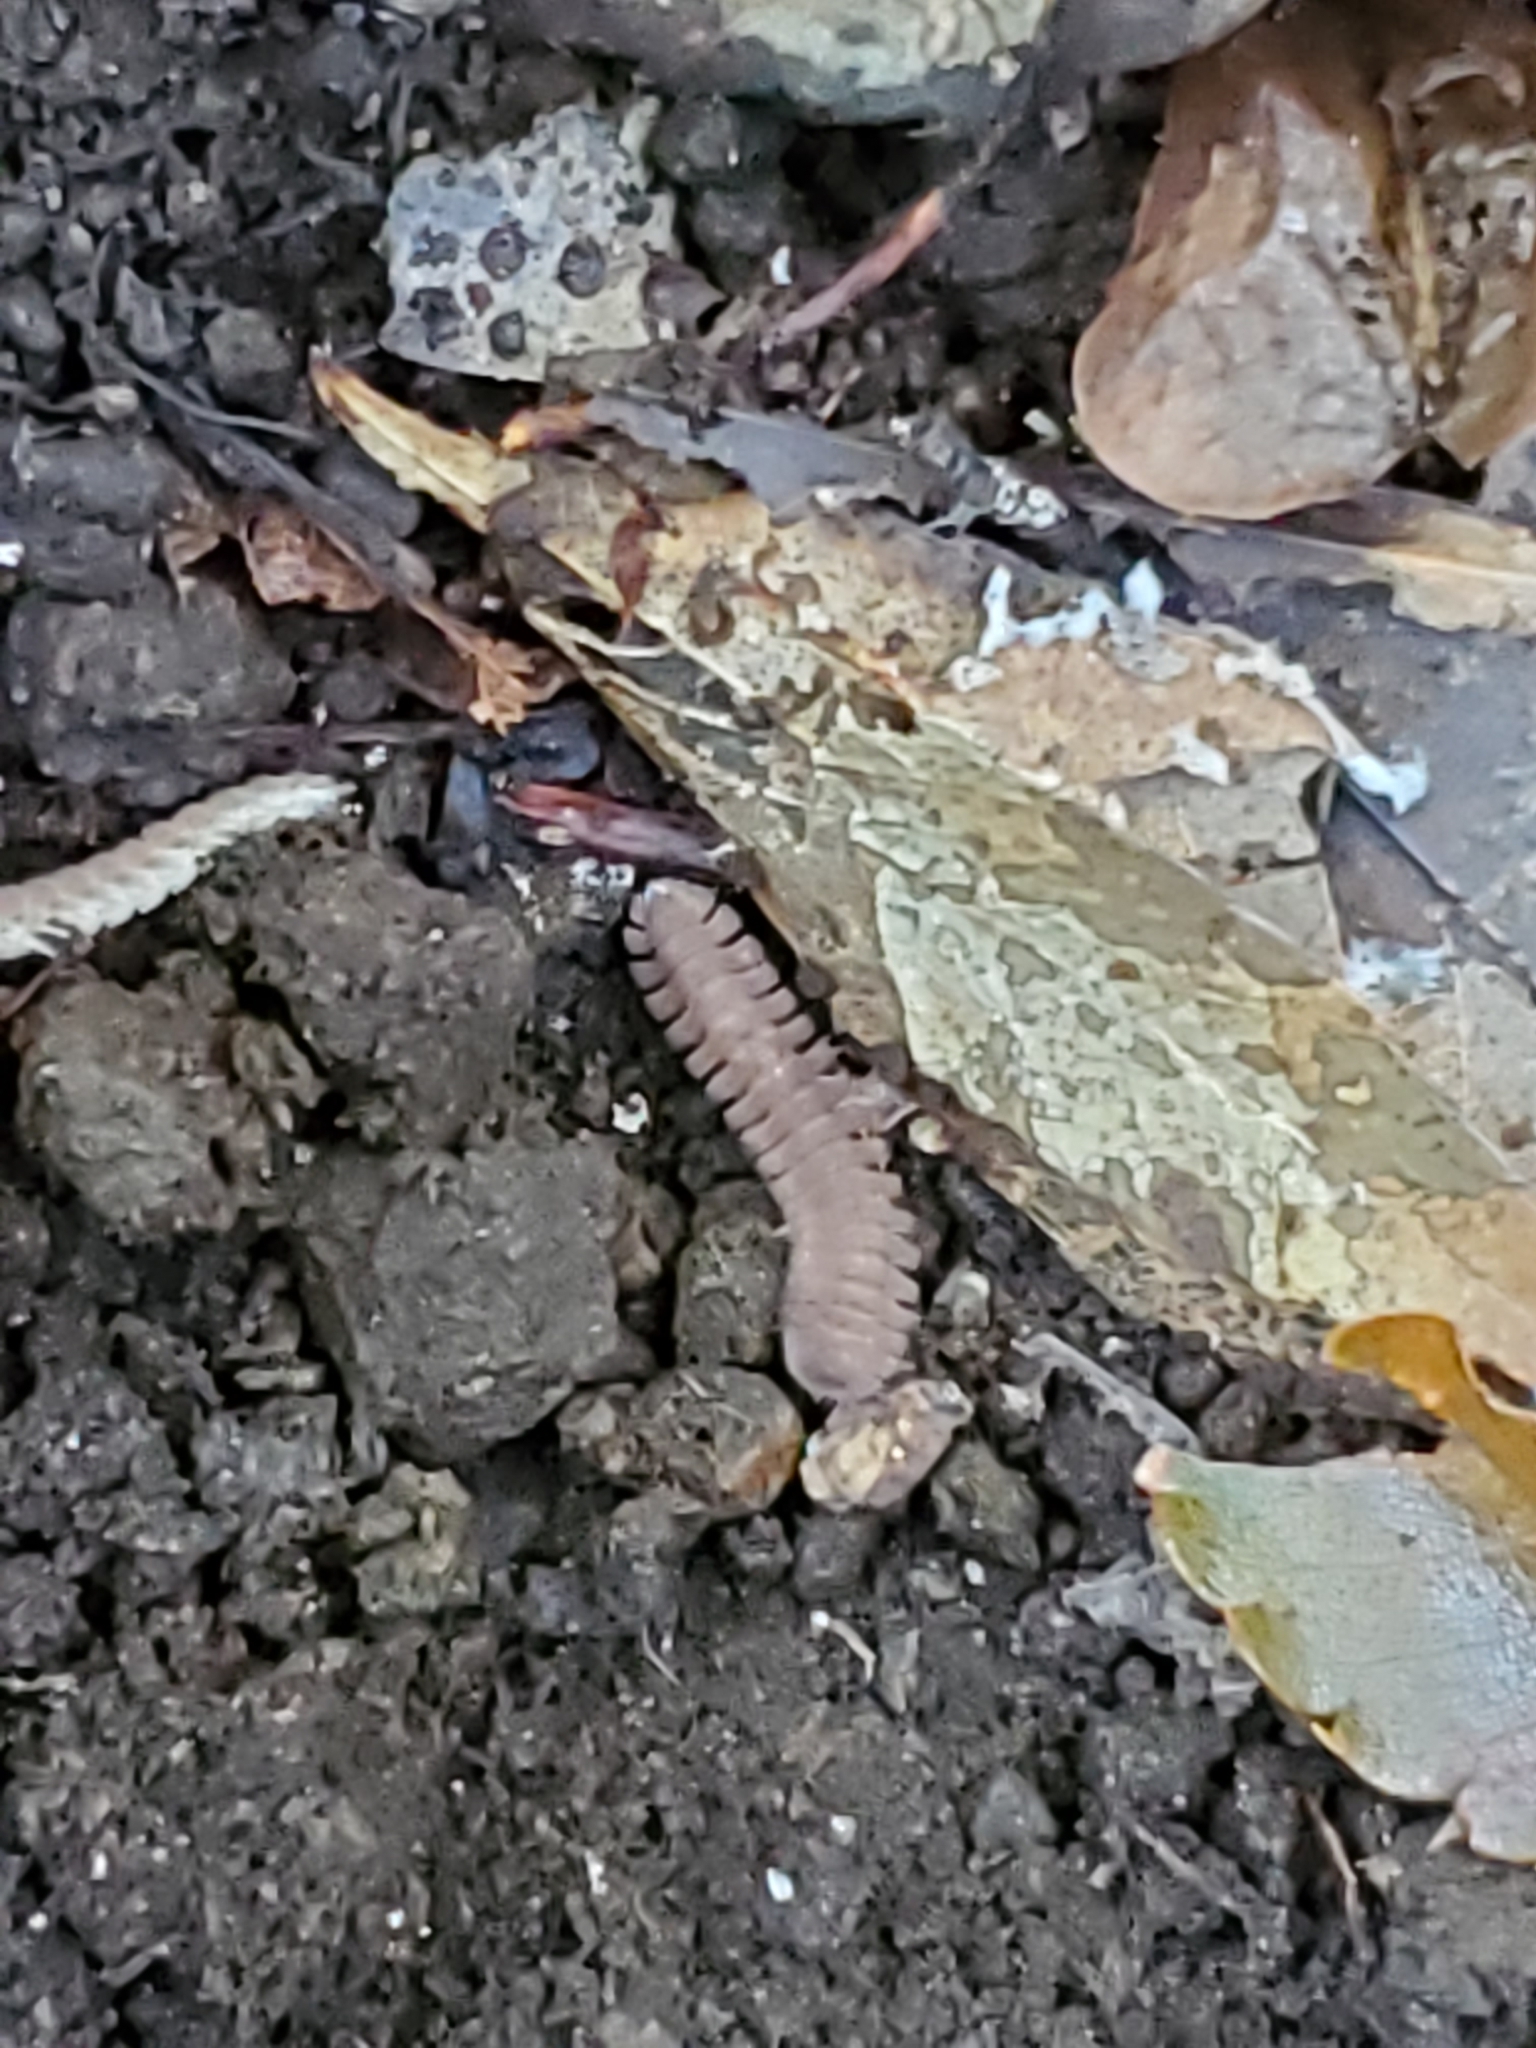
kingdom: Animalia
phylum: Arthropoda
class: Diplopoda
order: Polydesmida
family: Cryptodesmidae
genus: Niponia
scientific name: Niponia nodulosa
